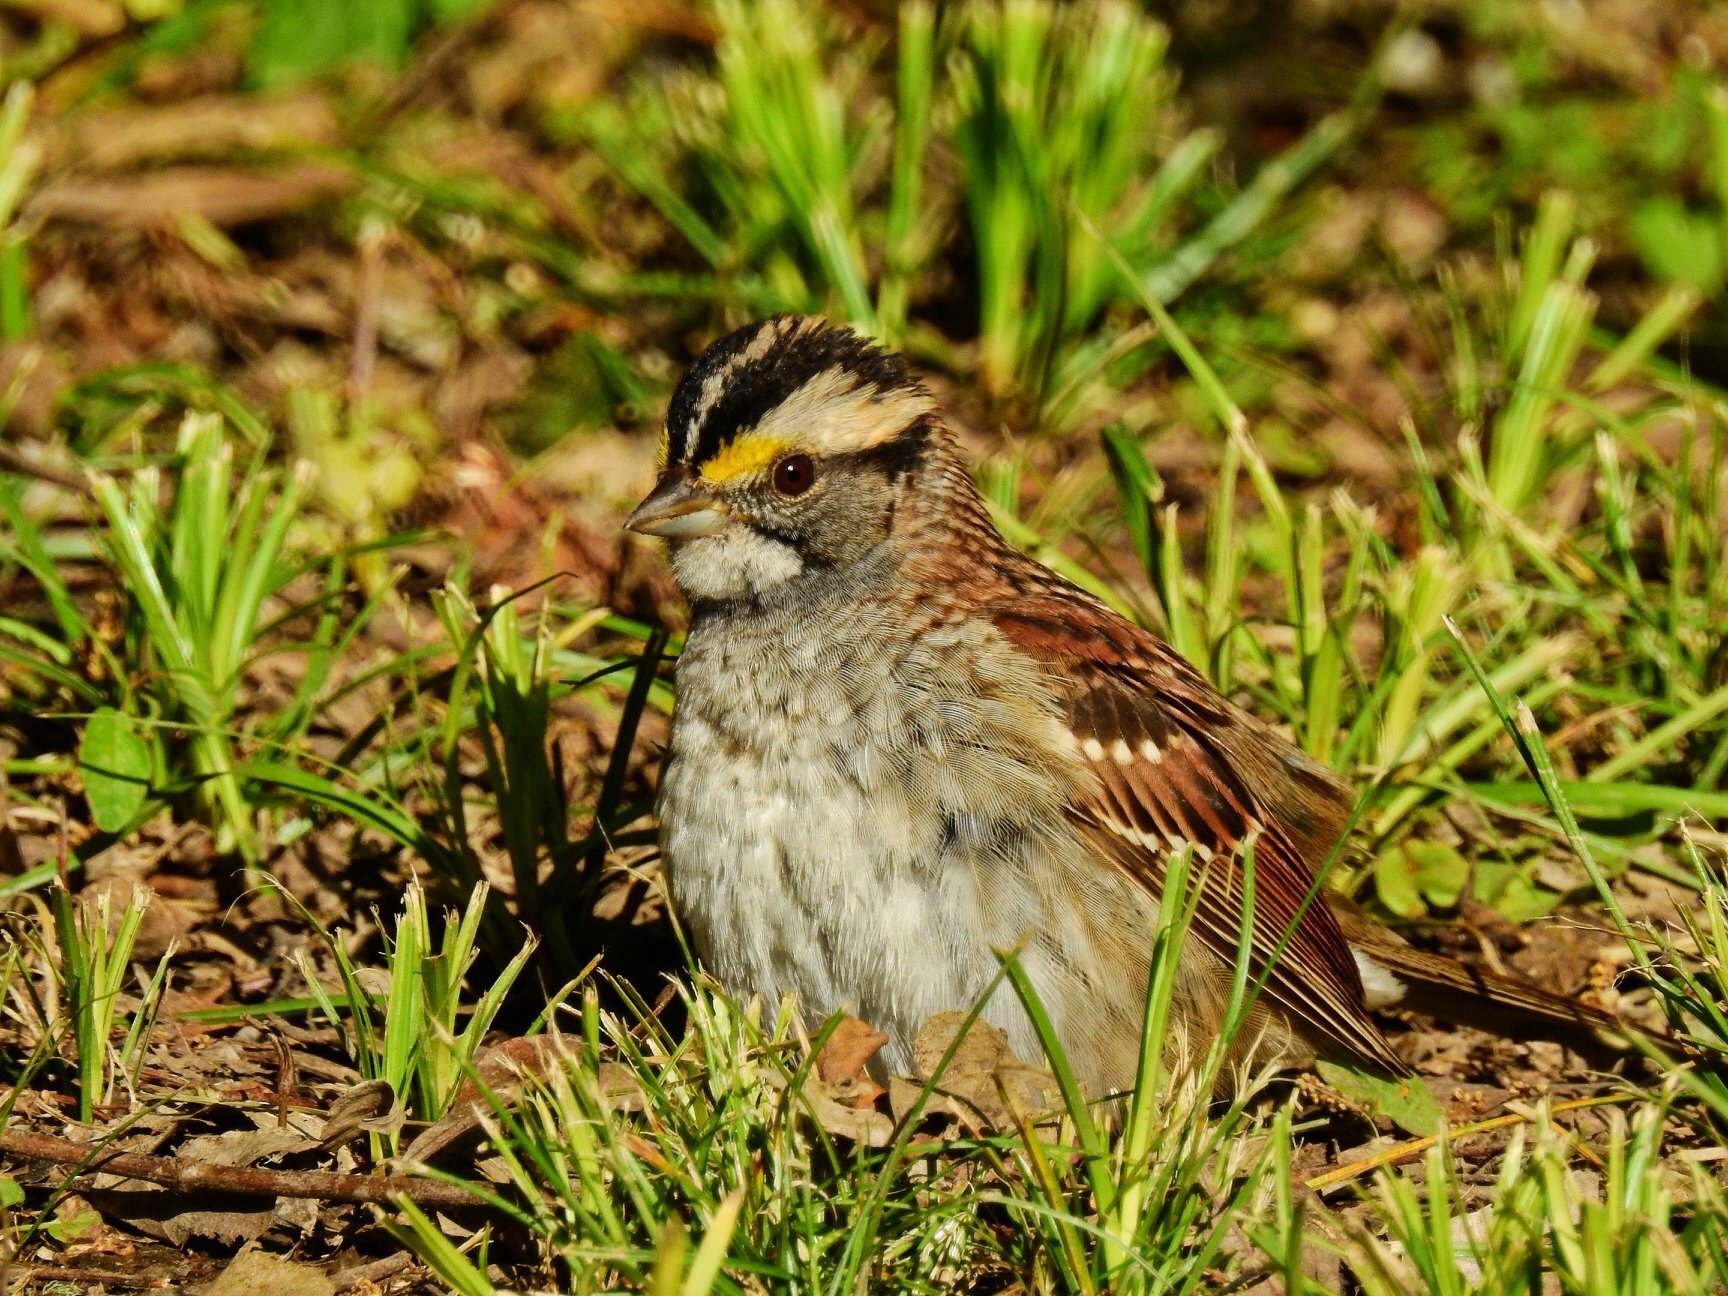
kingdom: Animalia
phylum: Chordata
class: Aves
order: Passeriformes
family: Passerellidae
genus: Zonotrichia
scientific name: Zonotrichia albicollis
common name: White-throated sparrow
